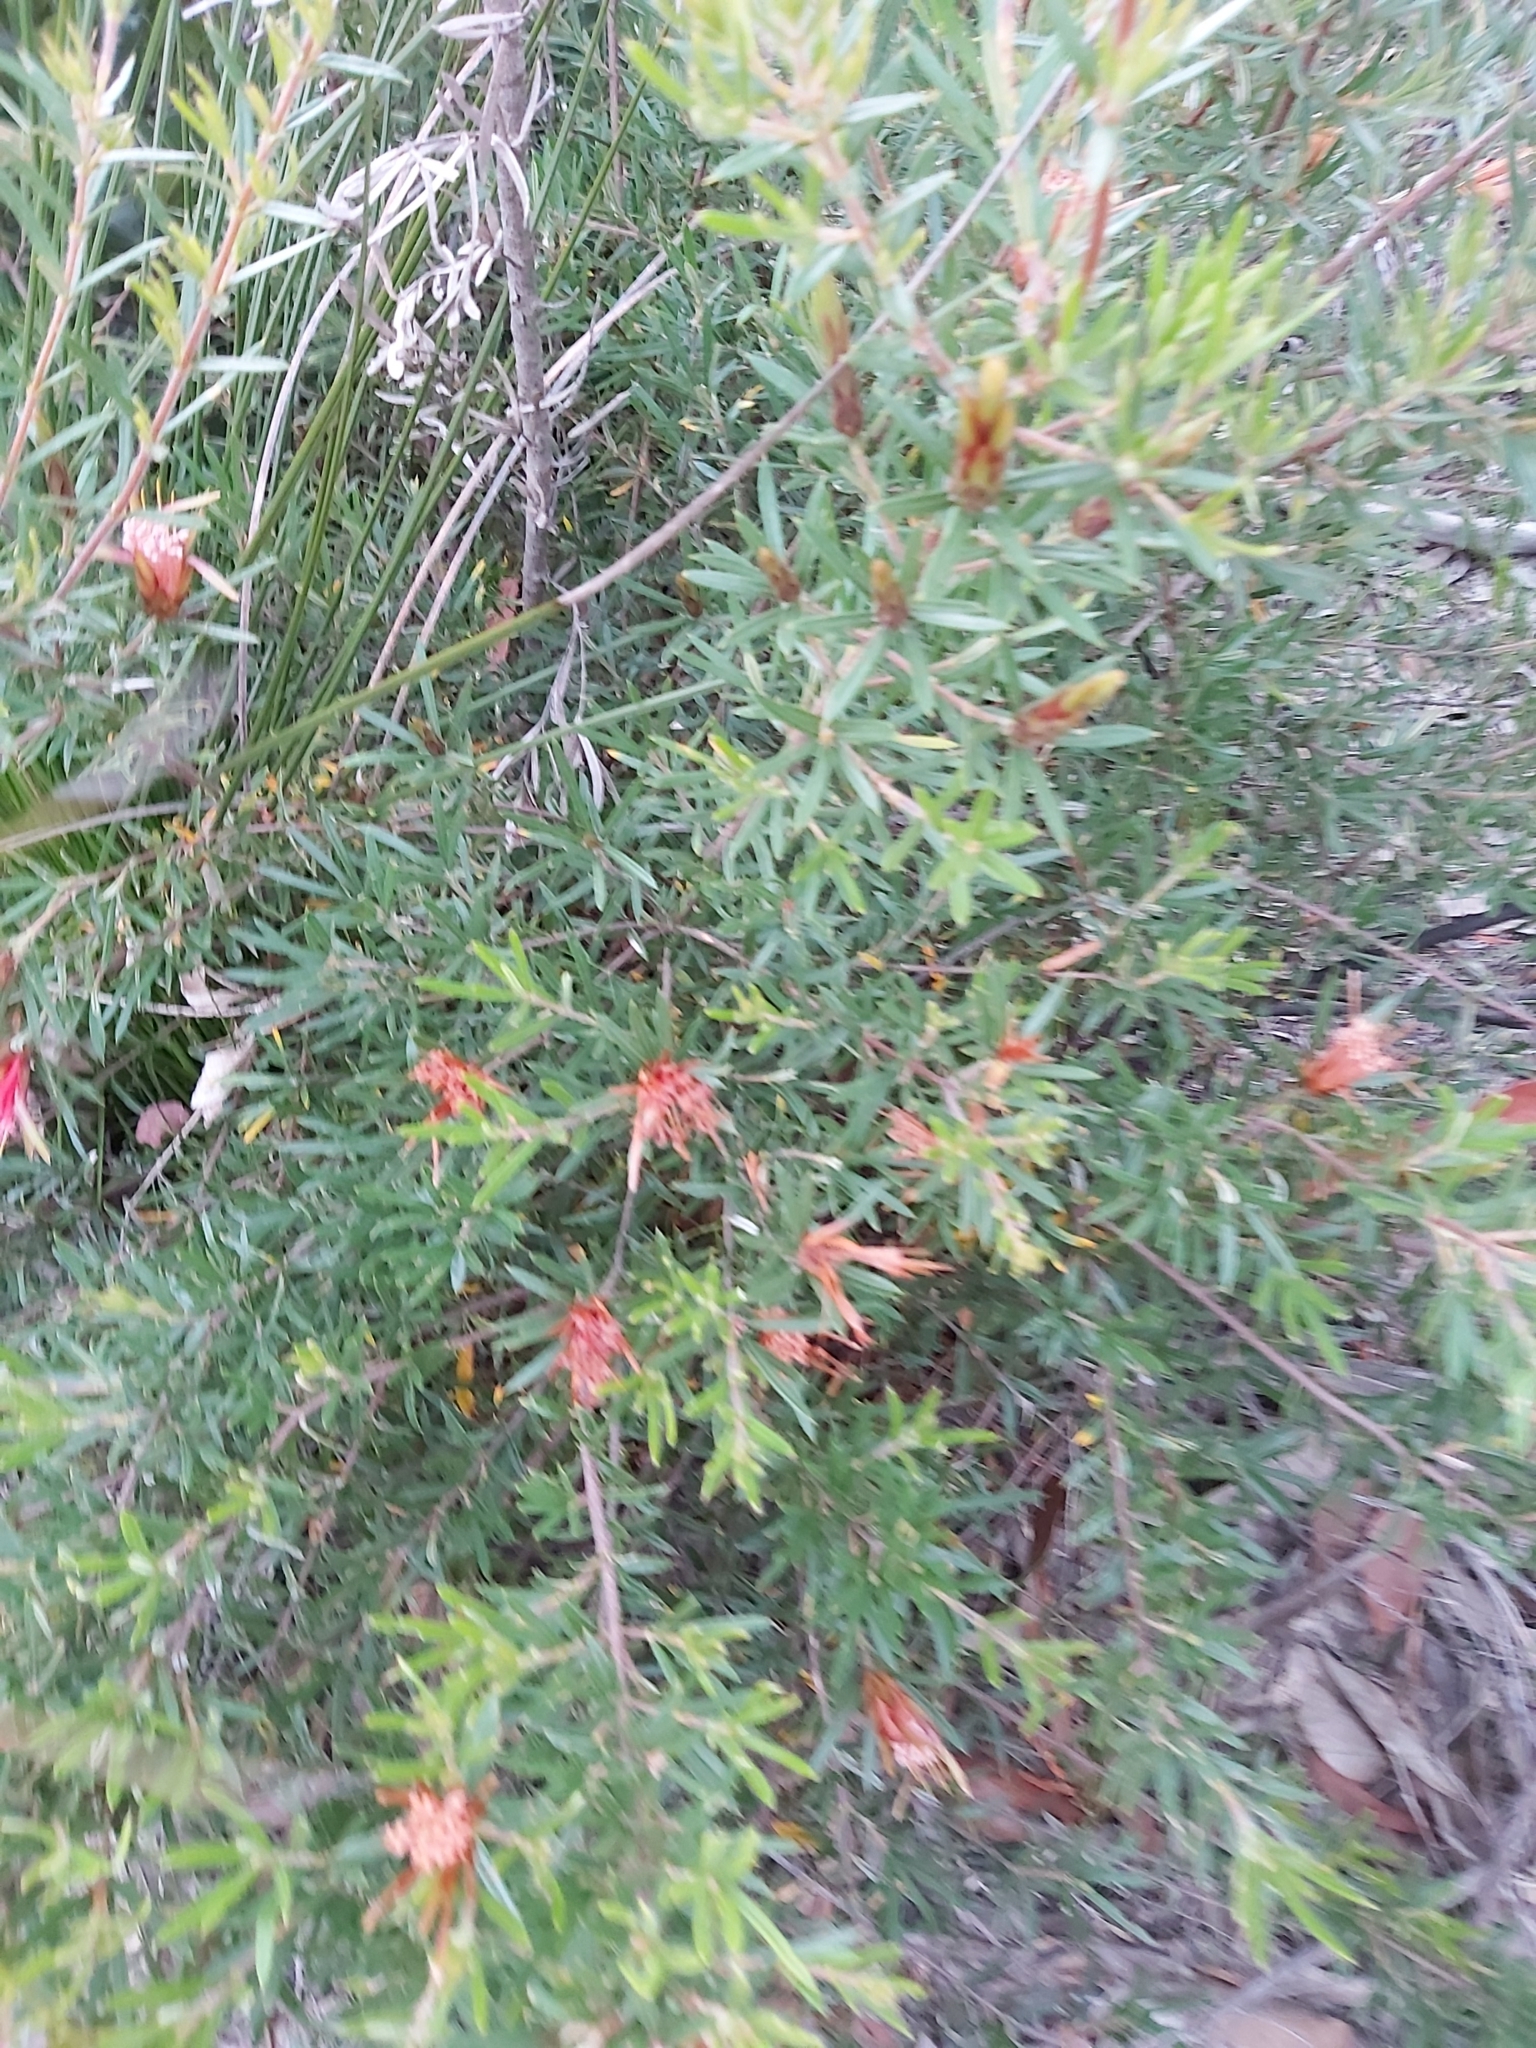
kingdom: Plantae
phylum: Tracheophyta
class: Magnoliopsida
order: Proteales
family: Proteaceae
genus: Lambertia
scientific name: Lambertia formosa
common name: Mountain-devil
